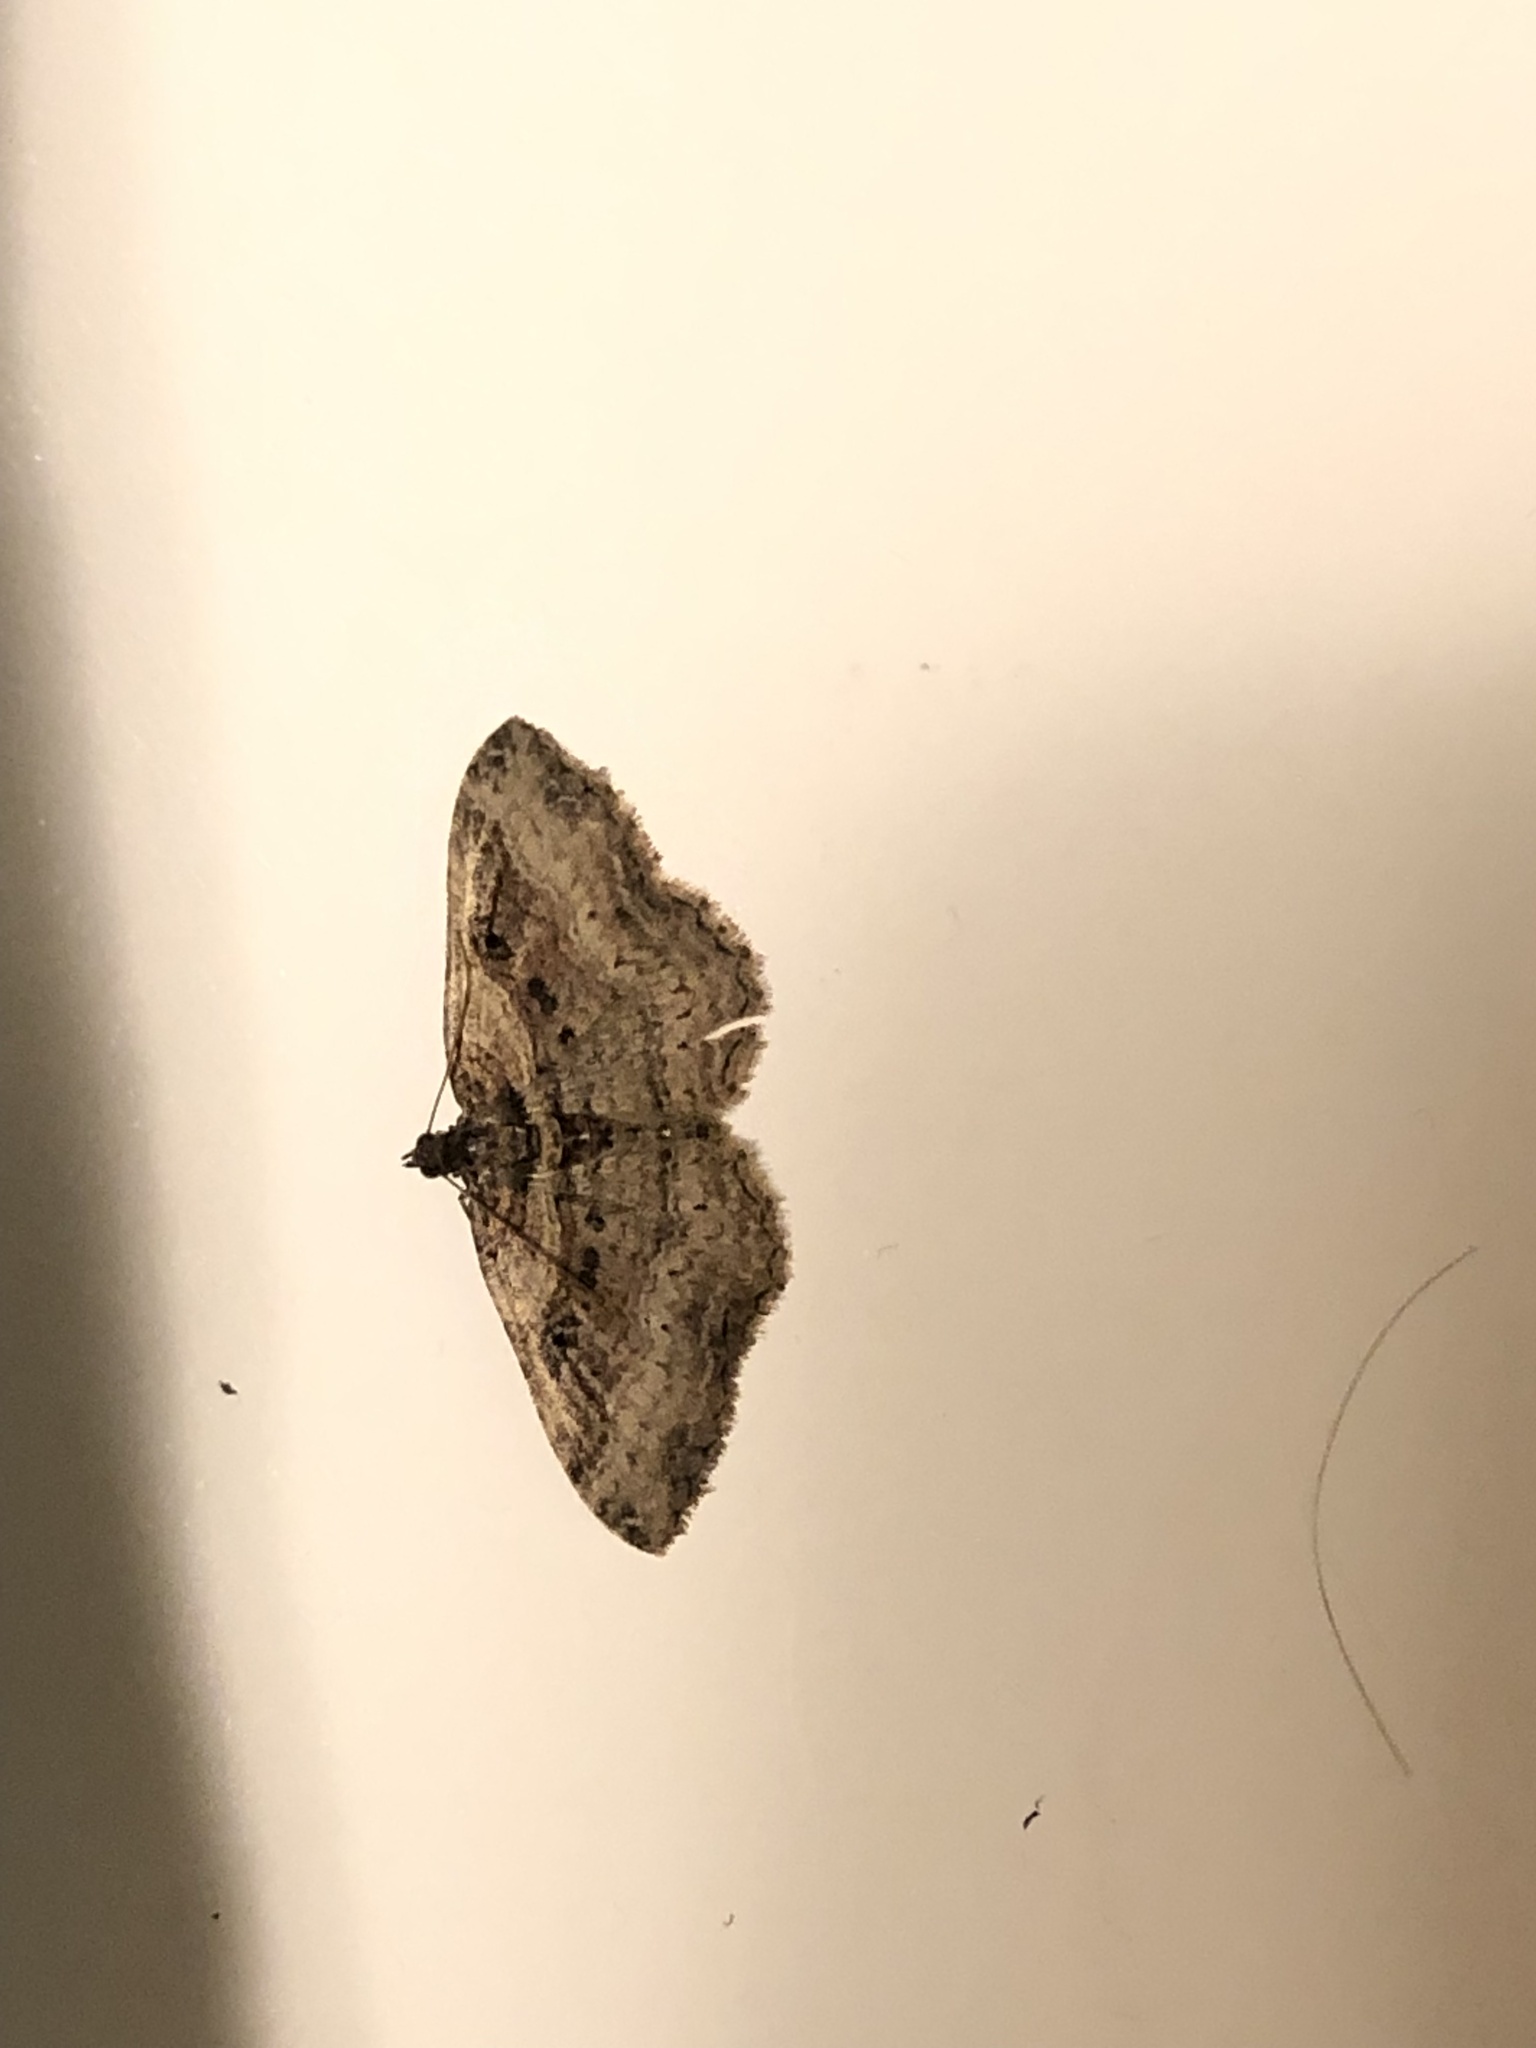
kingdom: Animalia
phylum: Arthropoda
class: Insecta
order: Lepidoptera
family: Geometridae
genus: Costaconvexa
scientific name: Costaconvexa centrostrigaria
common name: Bent-line carpet
